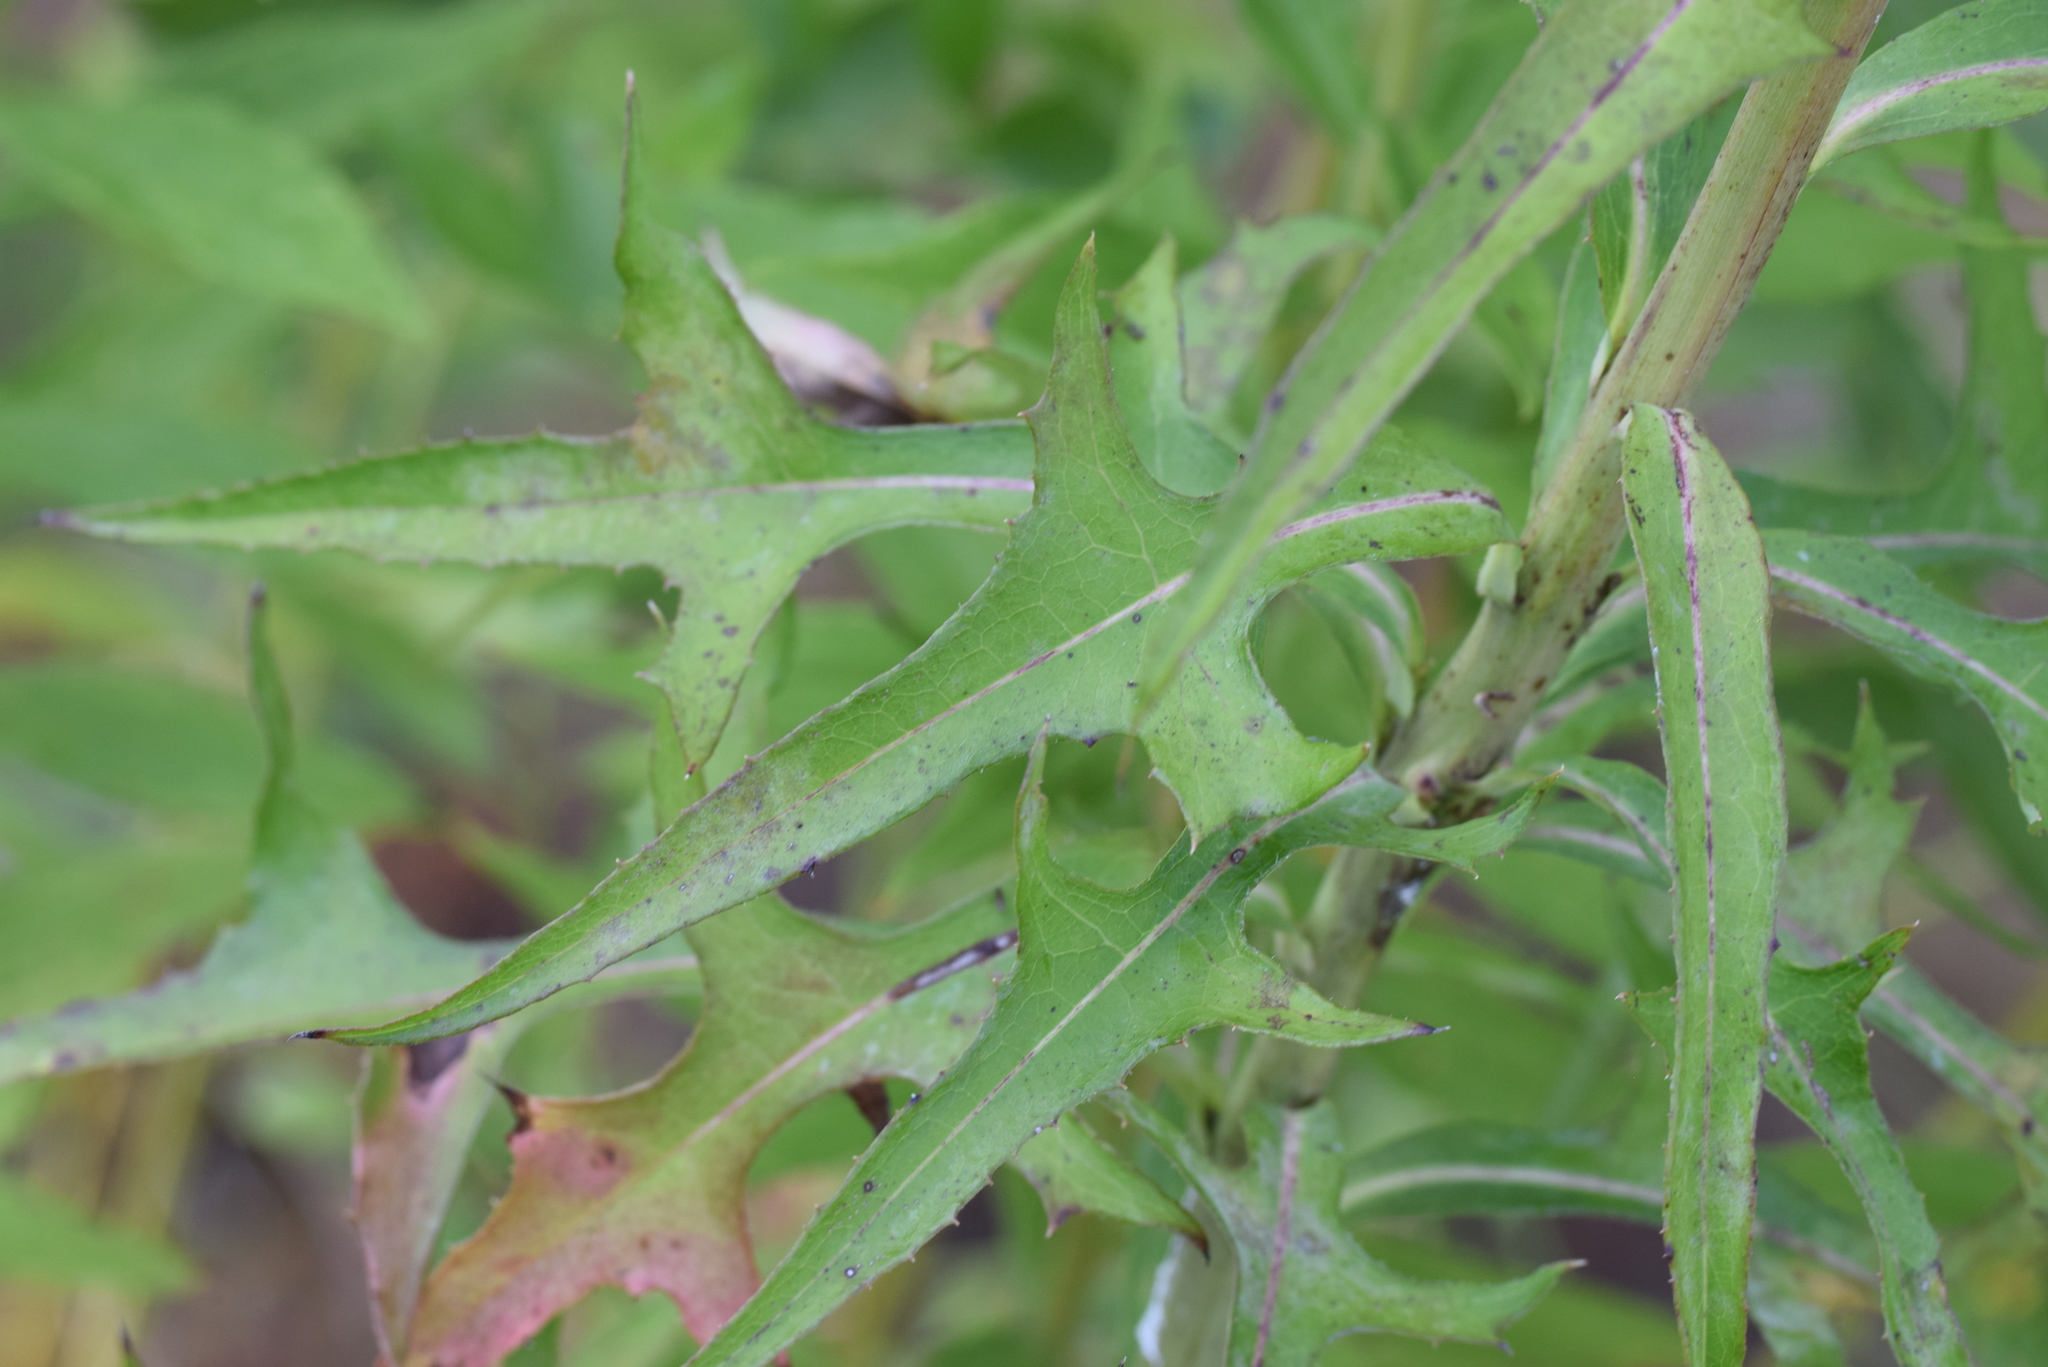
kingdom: Plantae
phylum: Tracheophyta
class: Magnoliopsida
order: Asterales
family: Asteraceae
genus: Lactuca
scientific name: Lactuca canadensis
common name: Canada lettuce
